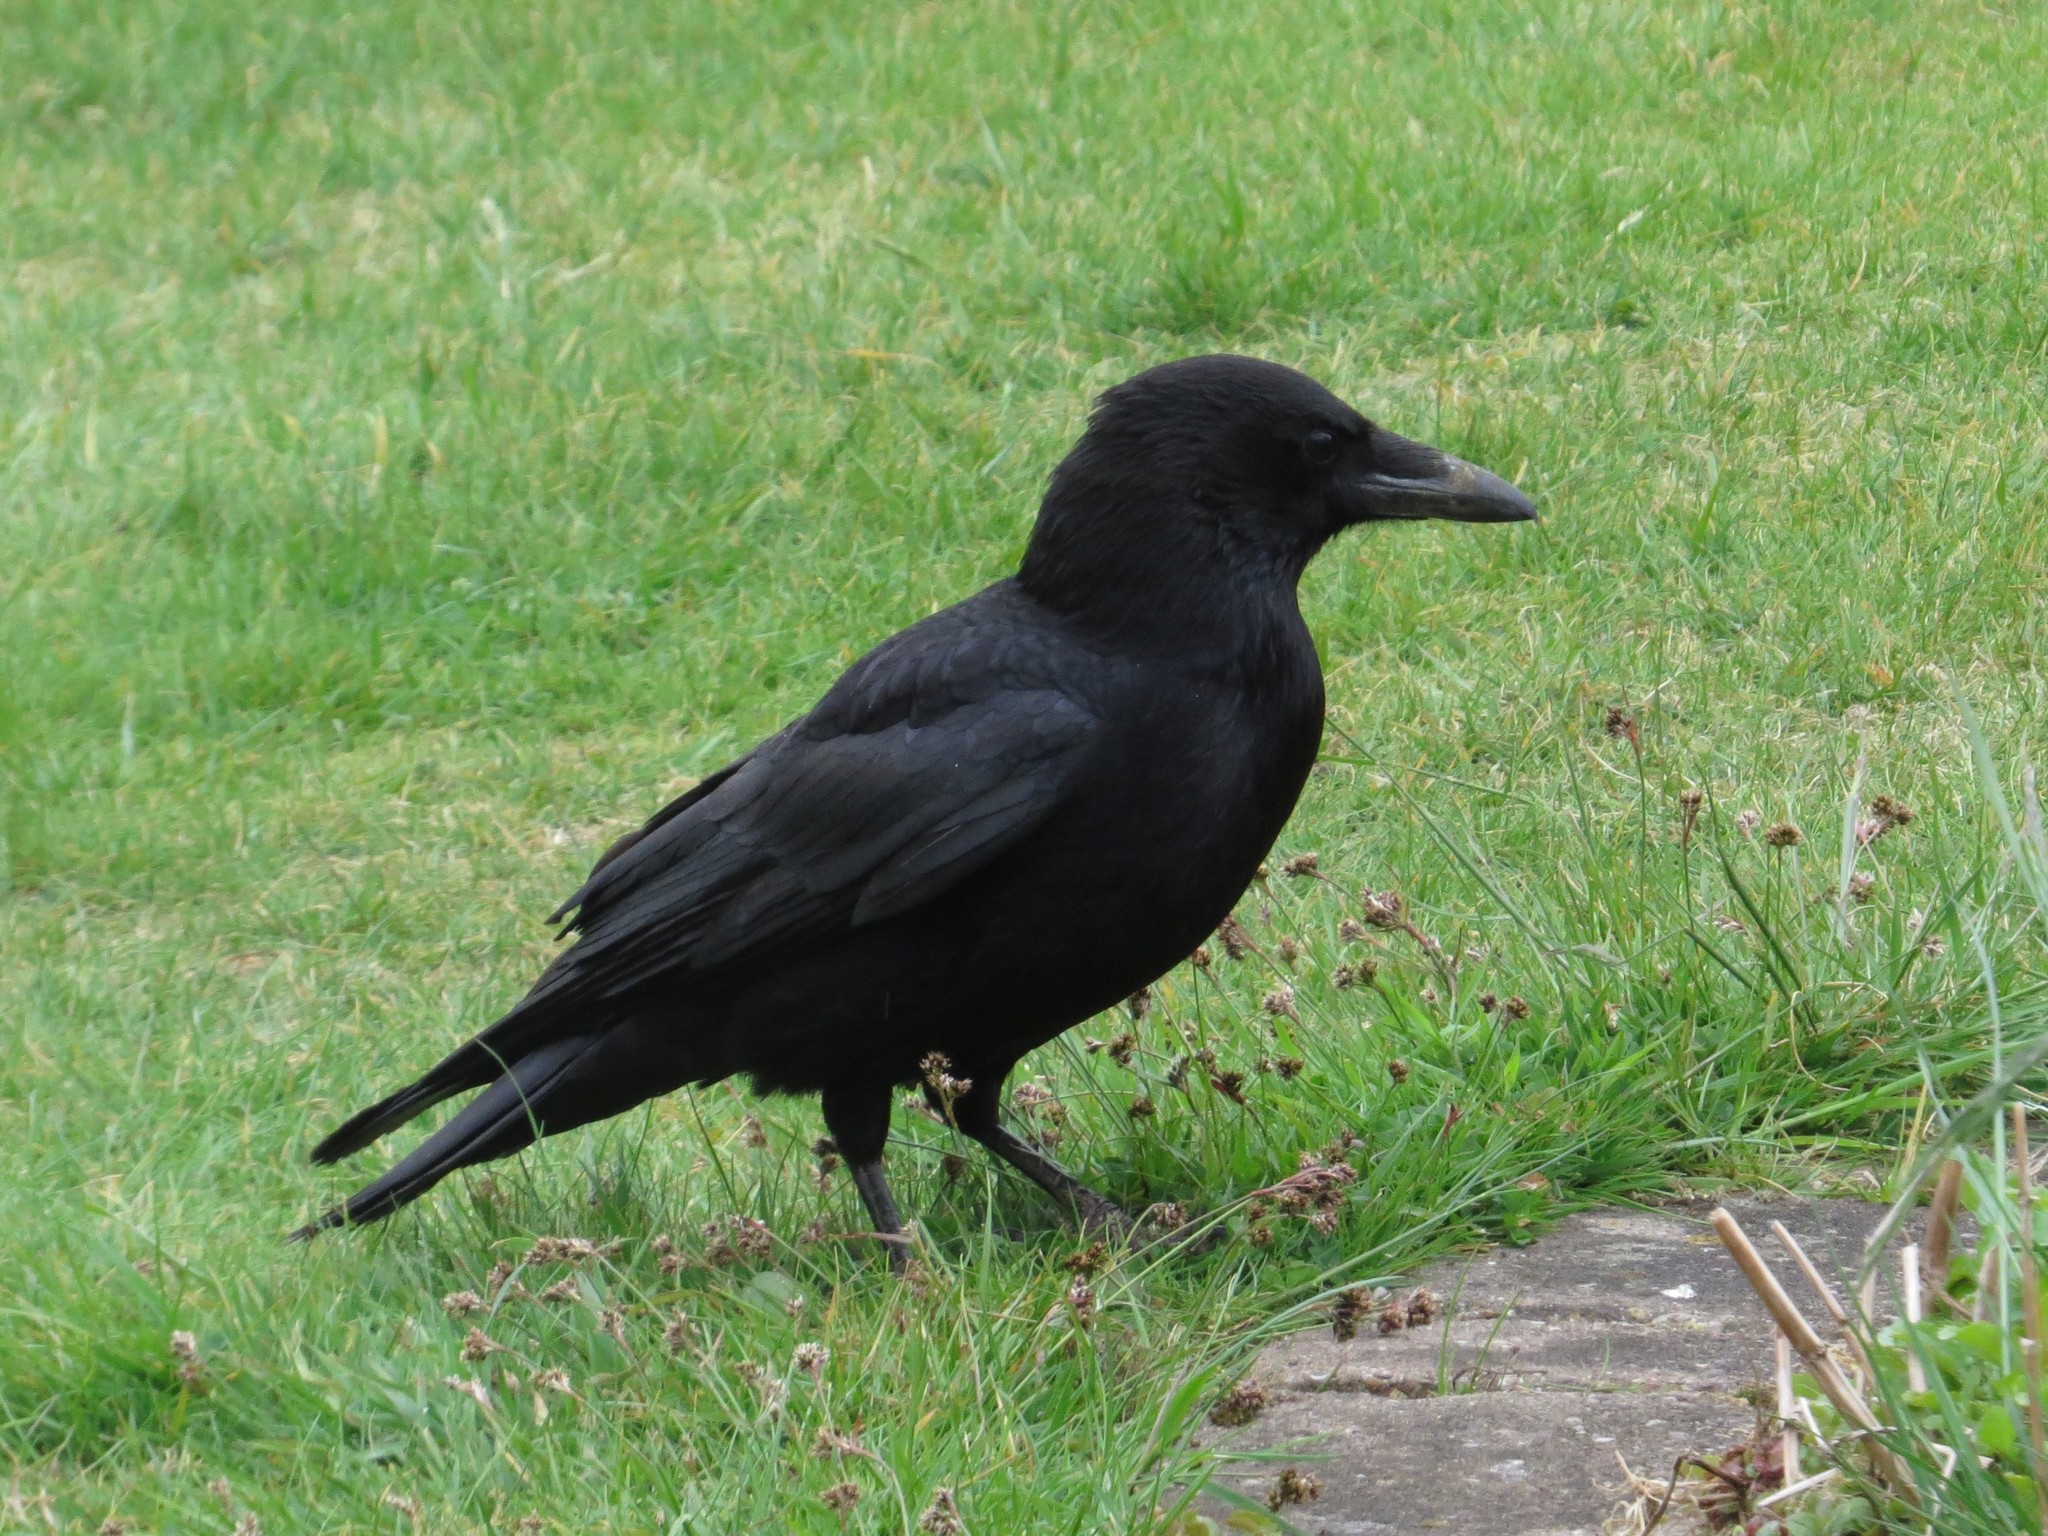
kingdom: Animalia
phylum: Chordata
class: Aves
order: Passeriformes
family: Corvidae
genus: Corvus
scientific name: Corvus corone
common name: Carrion crow
